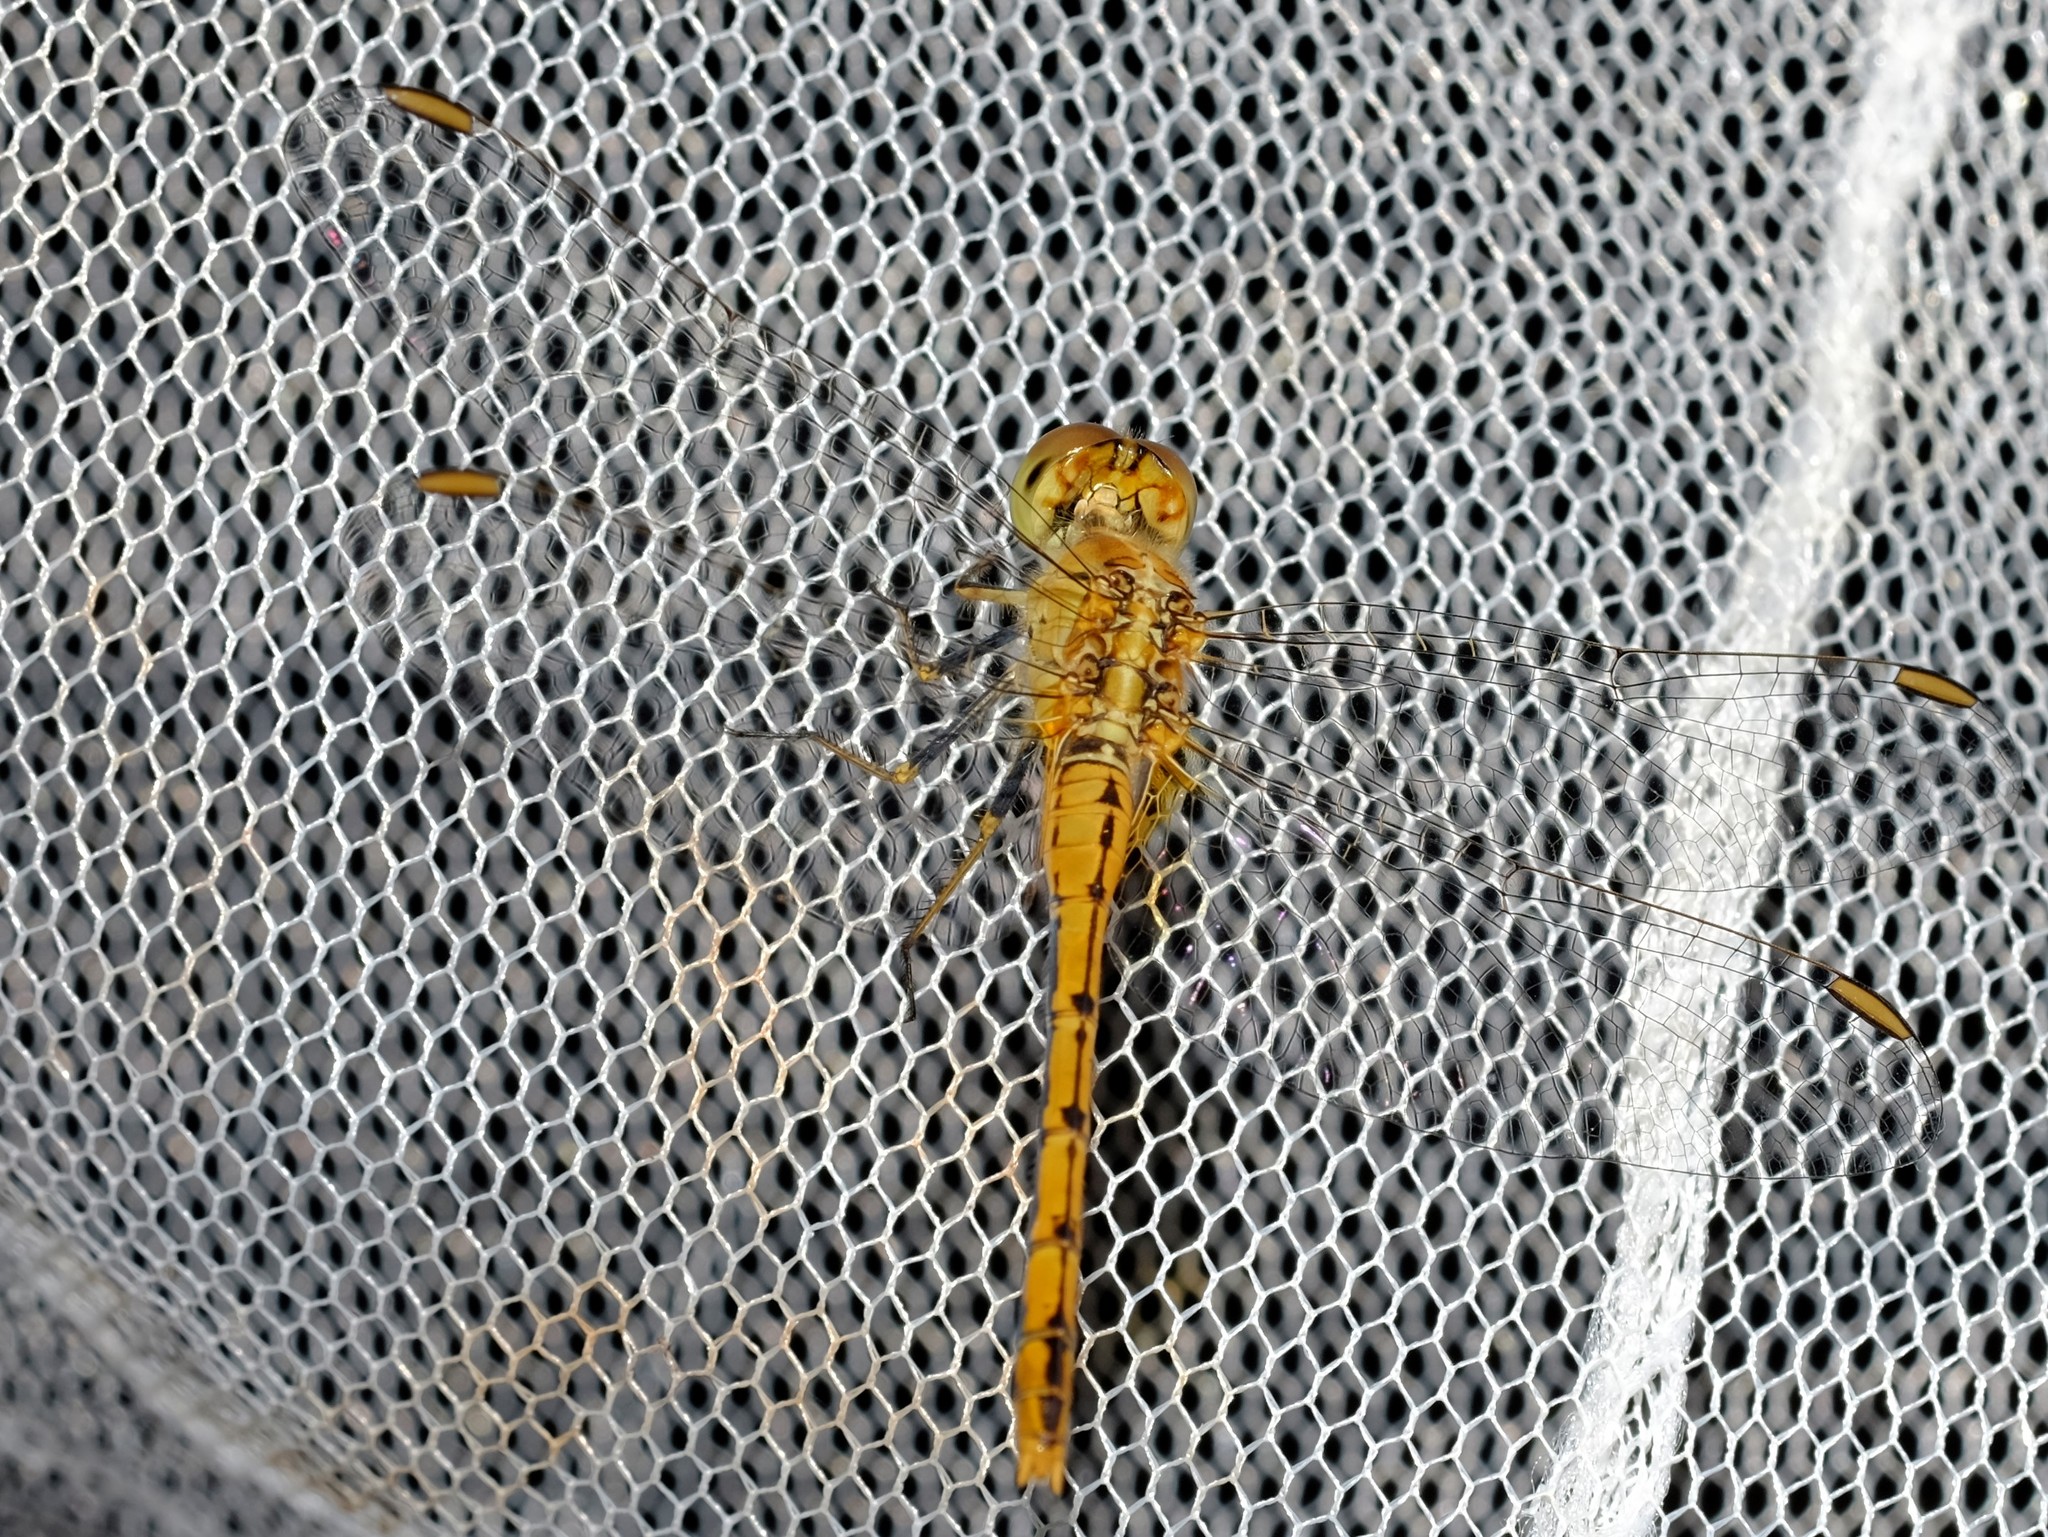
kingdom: Animalia
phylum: Arthropoda
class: Insecta
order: Odonata
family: Libellulidae
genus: Diplacodes
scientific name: Diplacodes bipunctata
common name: Red percher dragonfly
